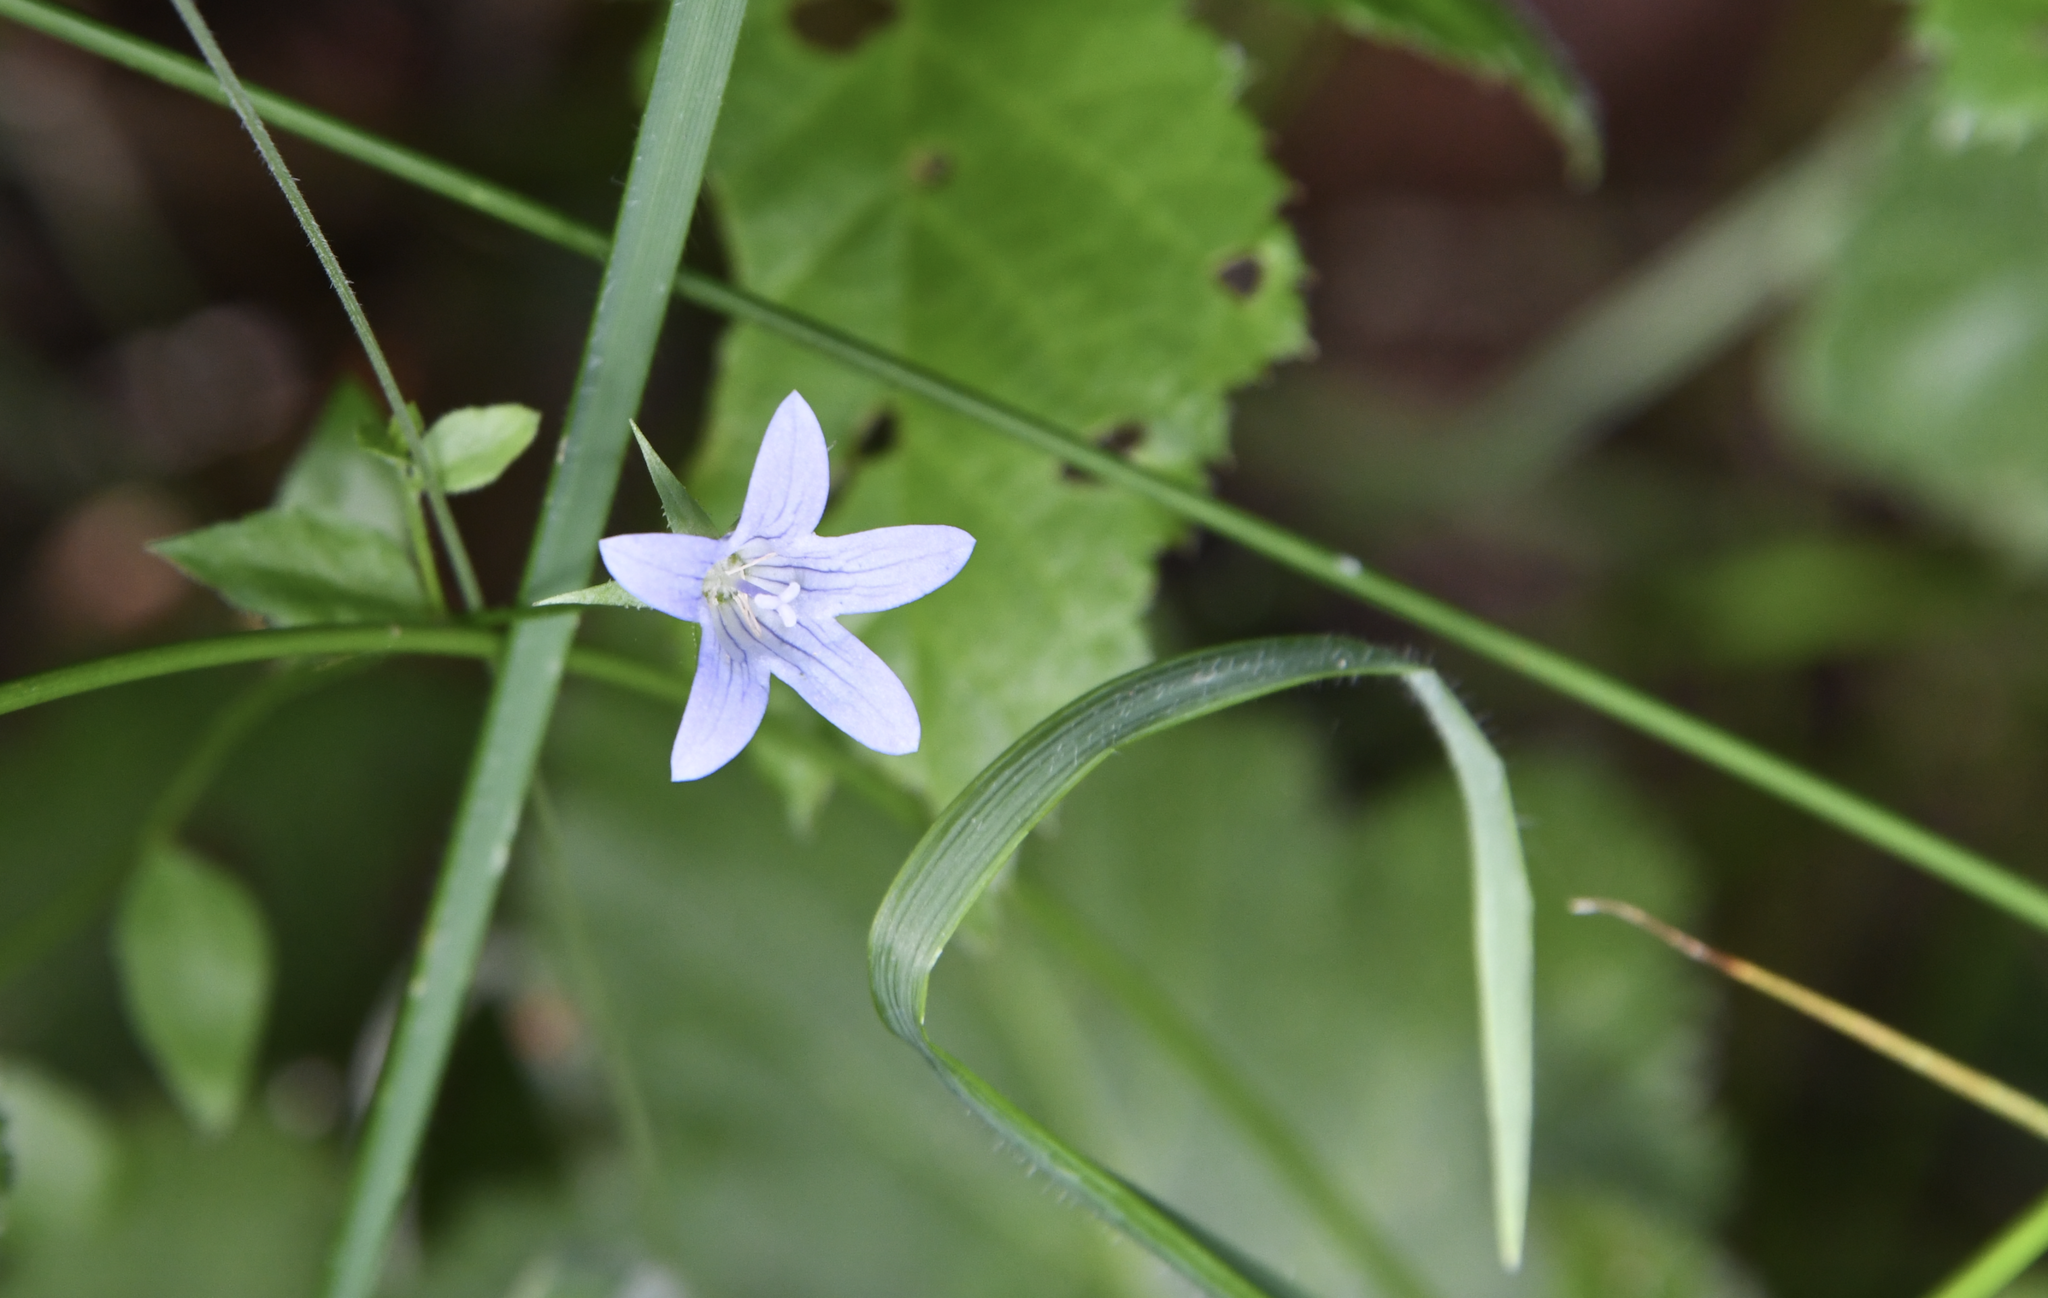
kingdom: Plantae
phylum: Tracheophyta
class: Magnoliopsida
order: Asterales
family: Campanulaceae
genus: Eastwoodiella
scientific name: Eastwoodiella californica
